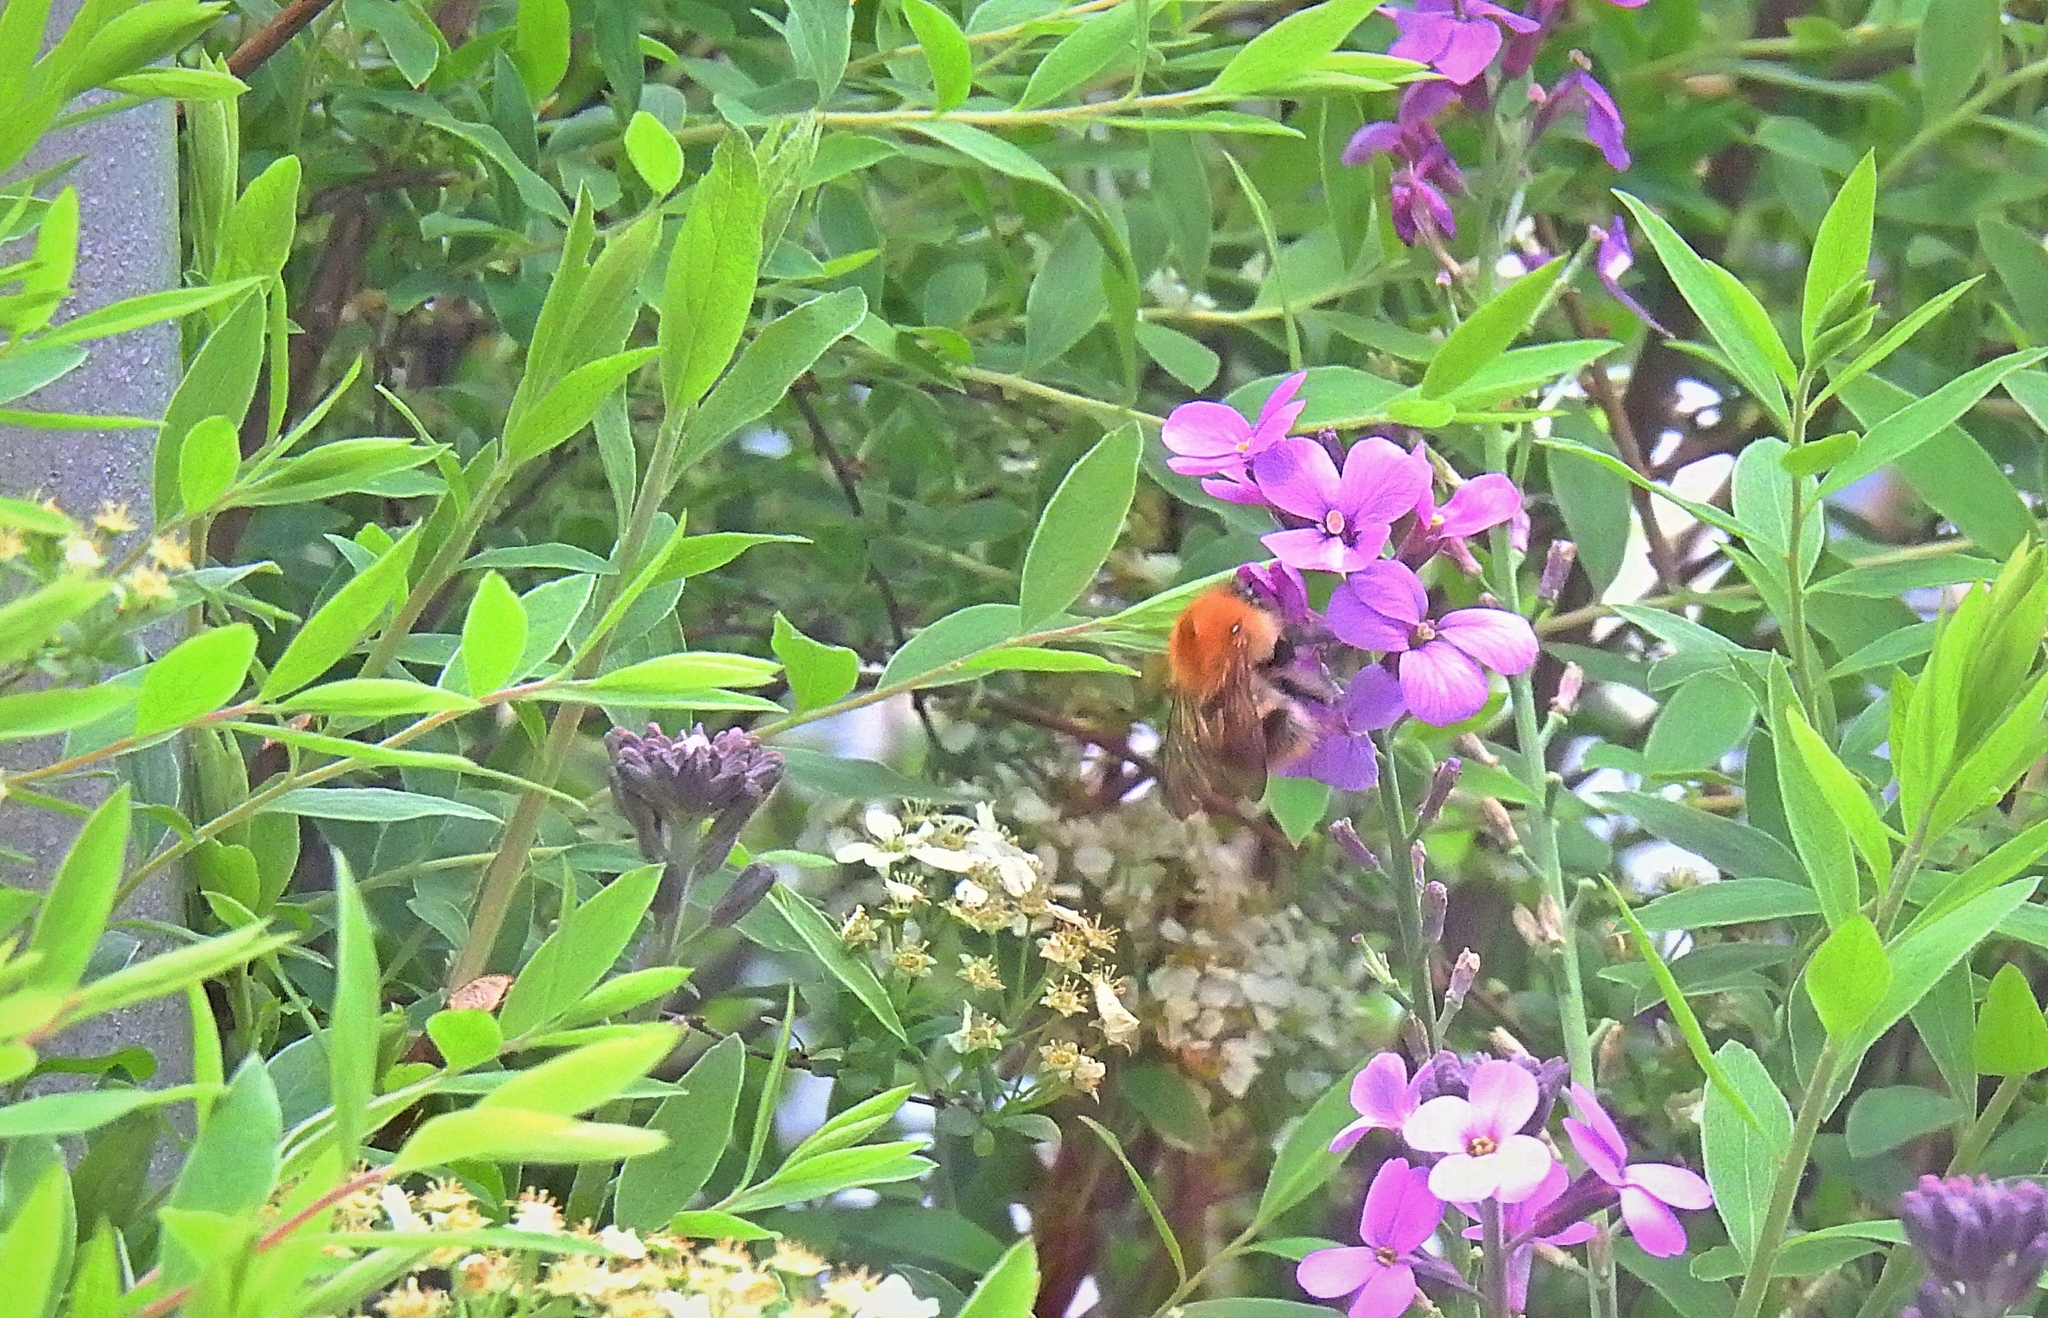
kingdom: Animalia
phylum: Arthropoda
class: Insecta
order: Hymenoptera
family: Apidae
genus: Bombus
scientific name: Bombus pascuorum
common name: Common carder bee
